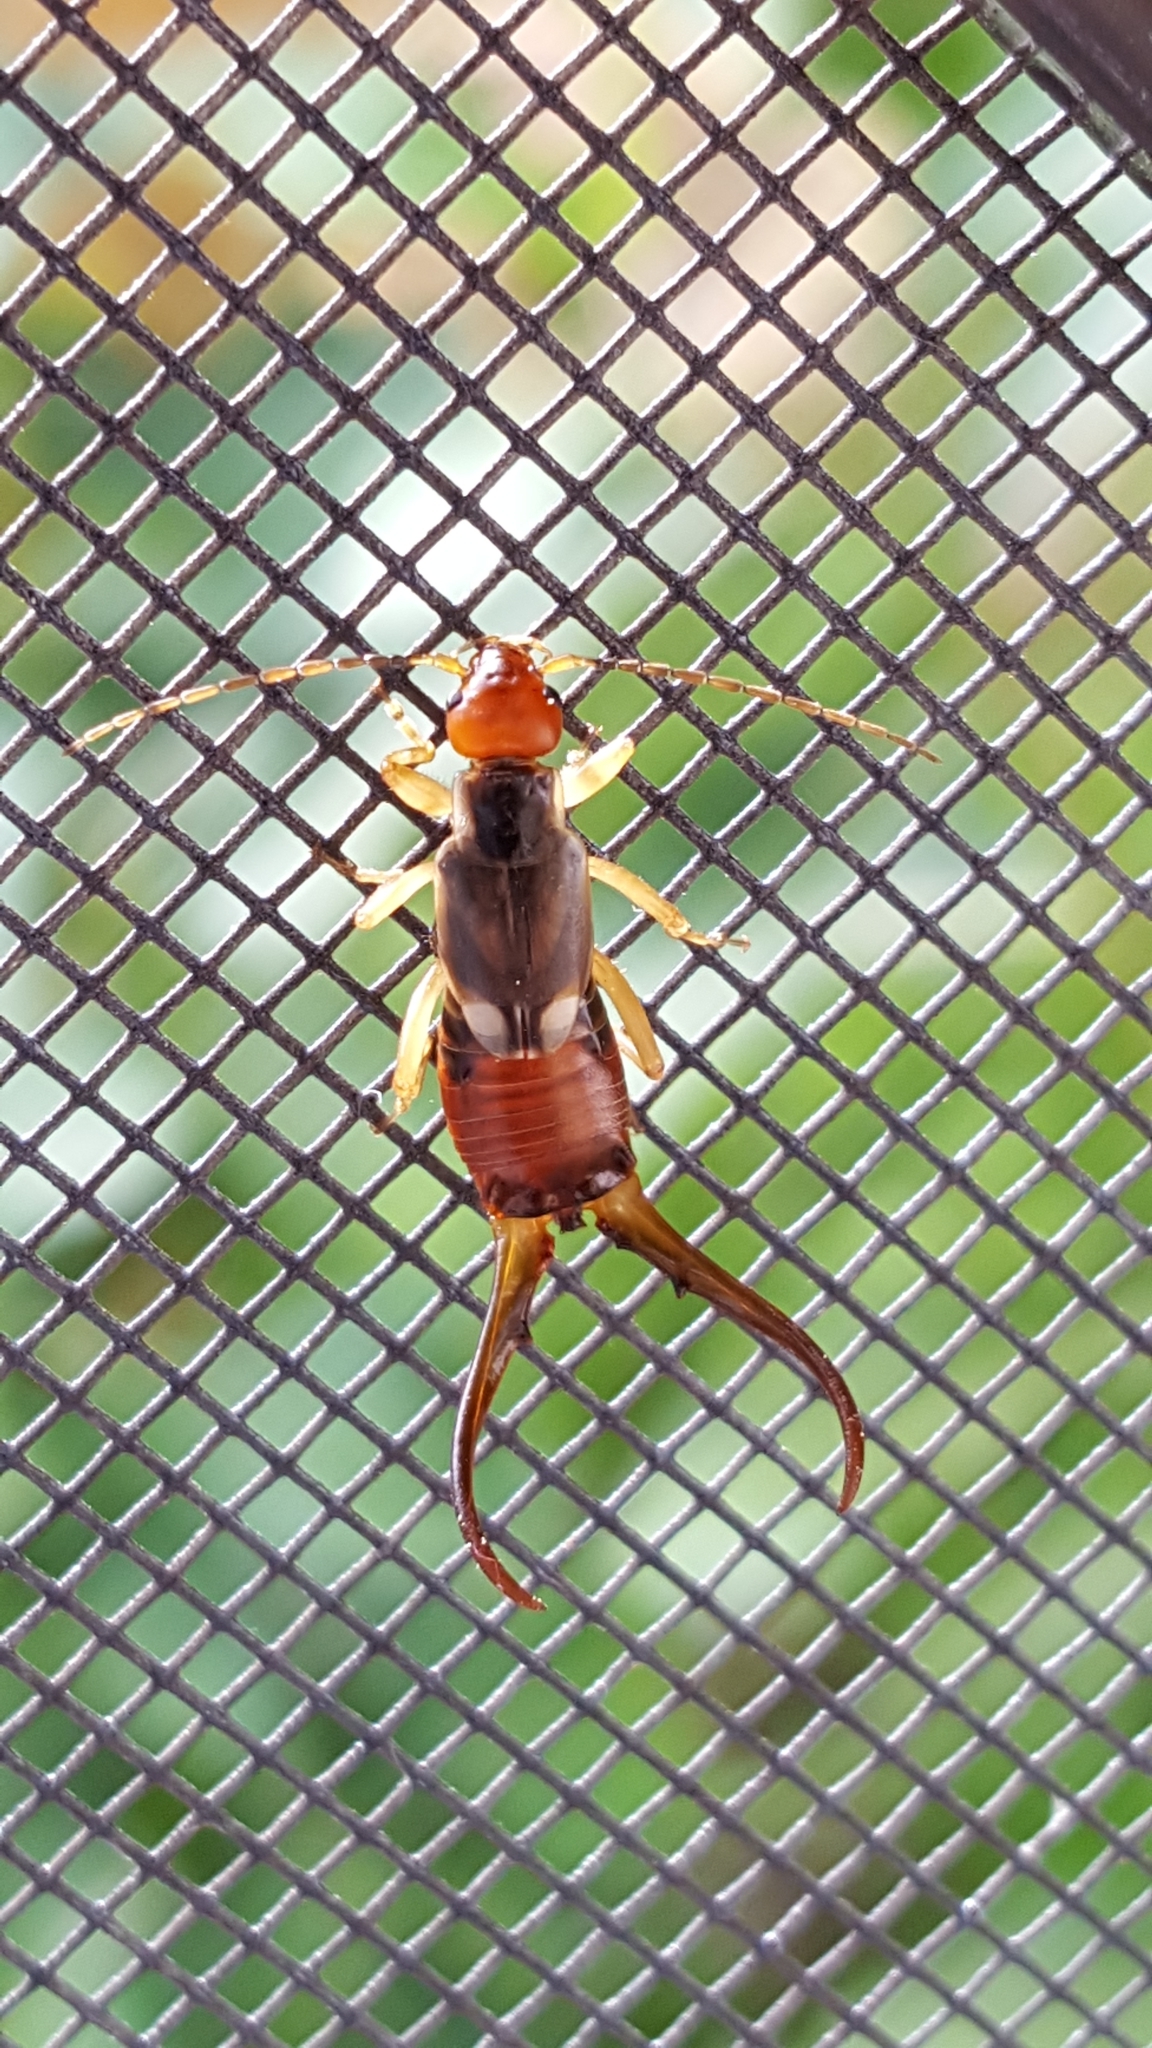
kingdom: Animalia
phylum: Arthropoda
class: Insecta
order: Dermaptera
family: Forficulidae
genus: Forficula
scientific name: Forficula
